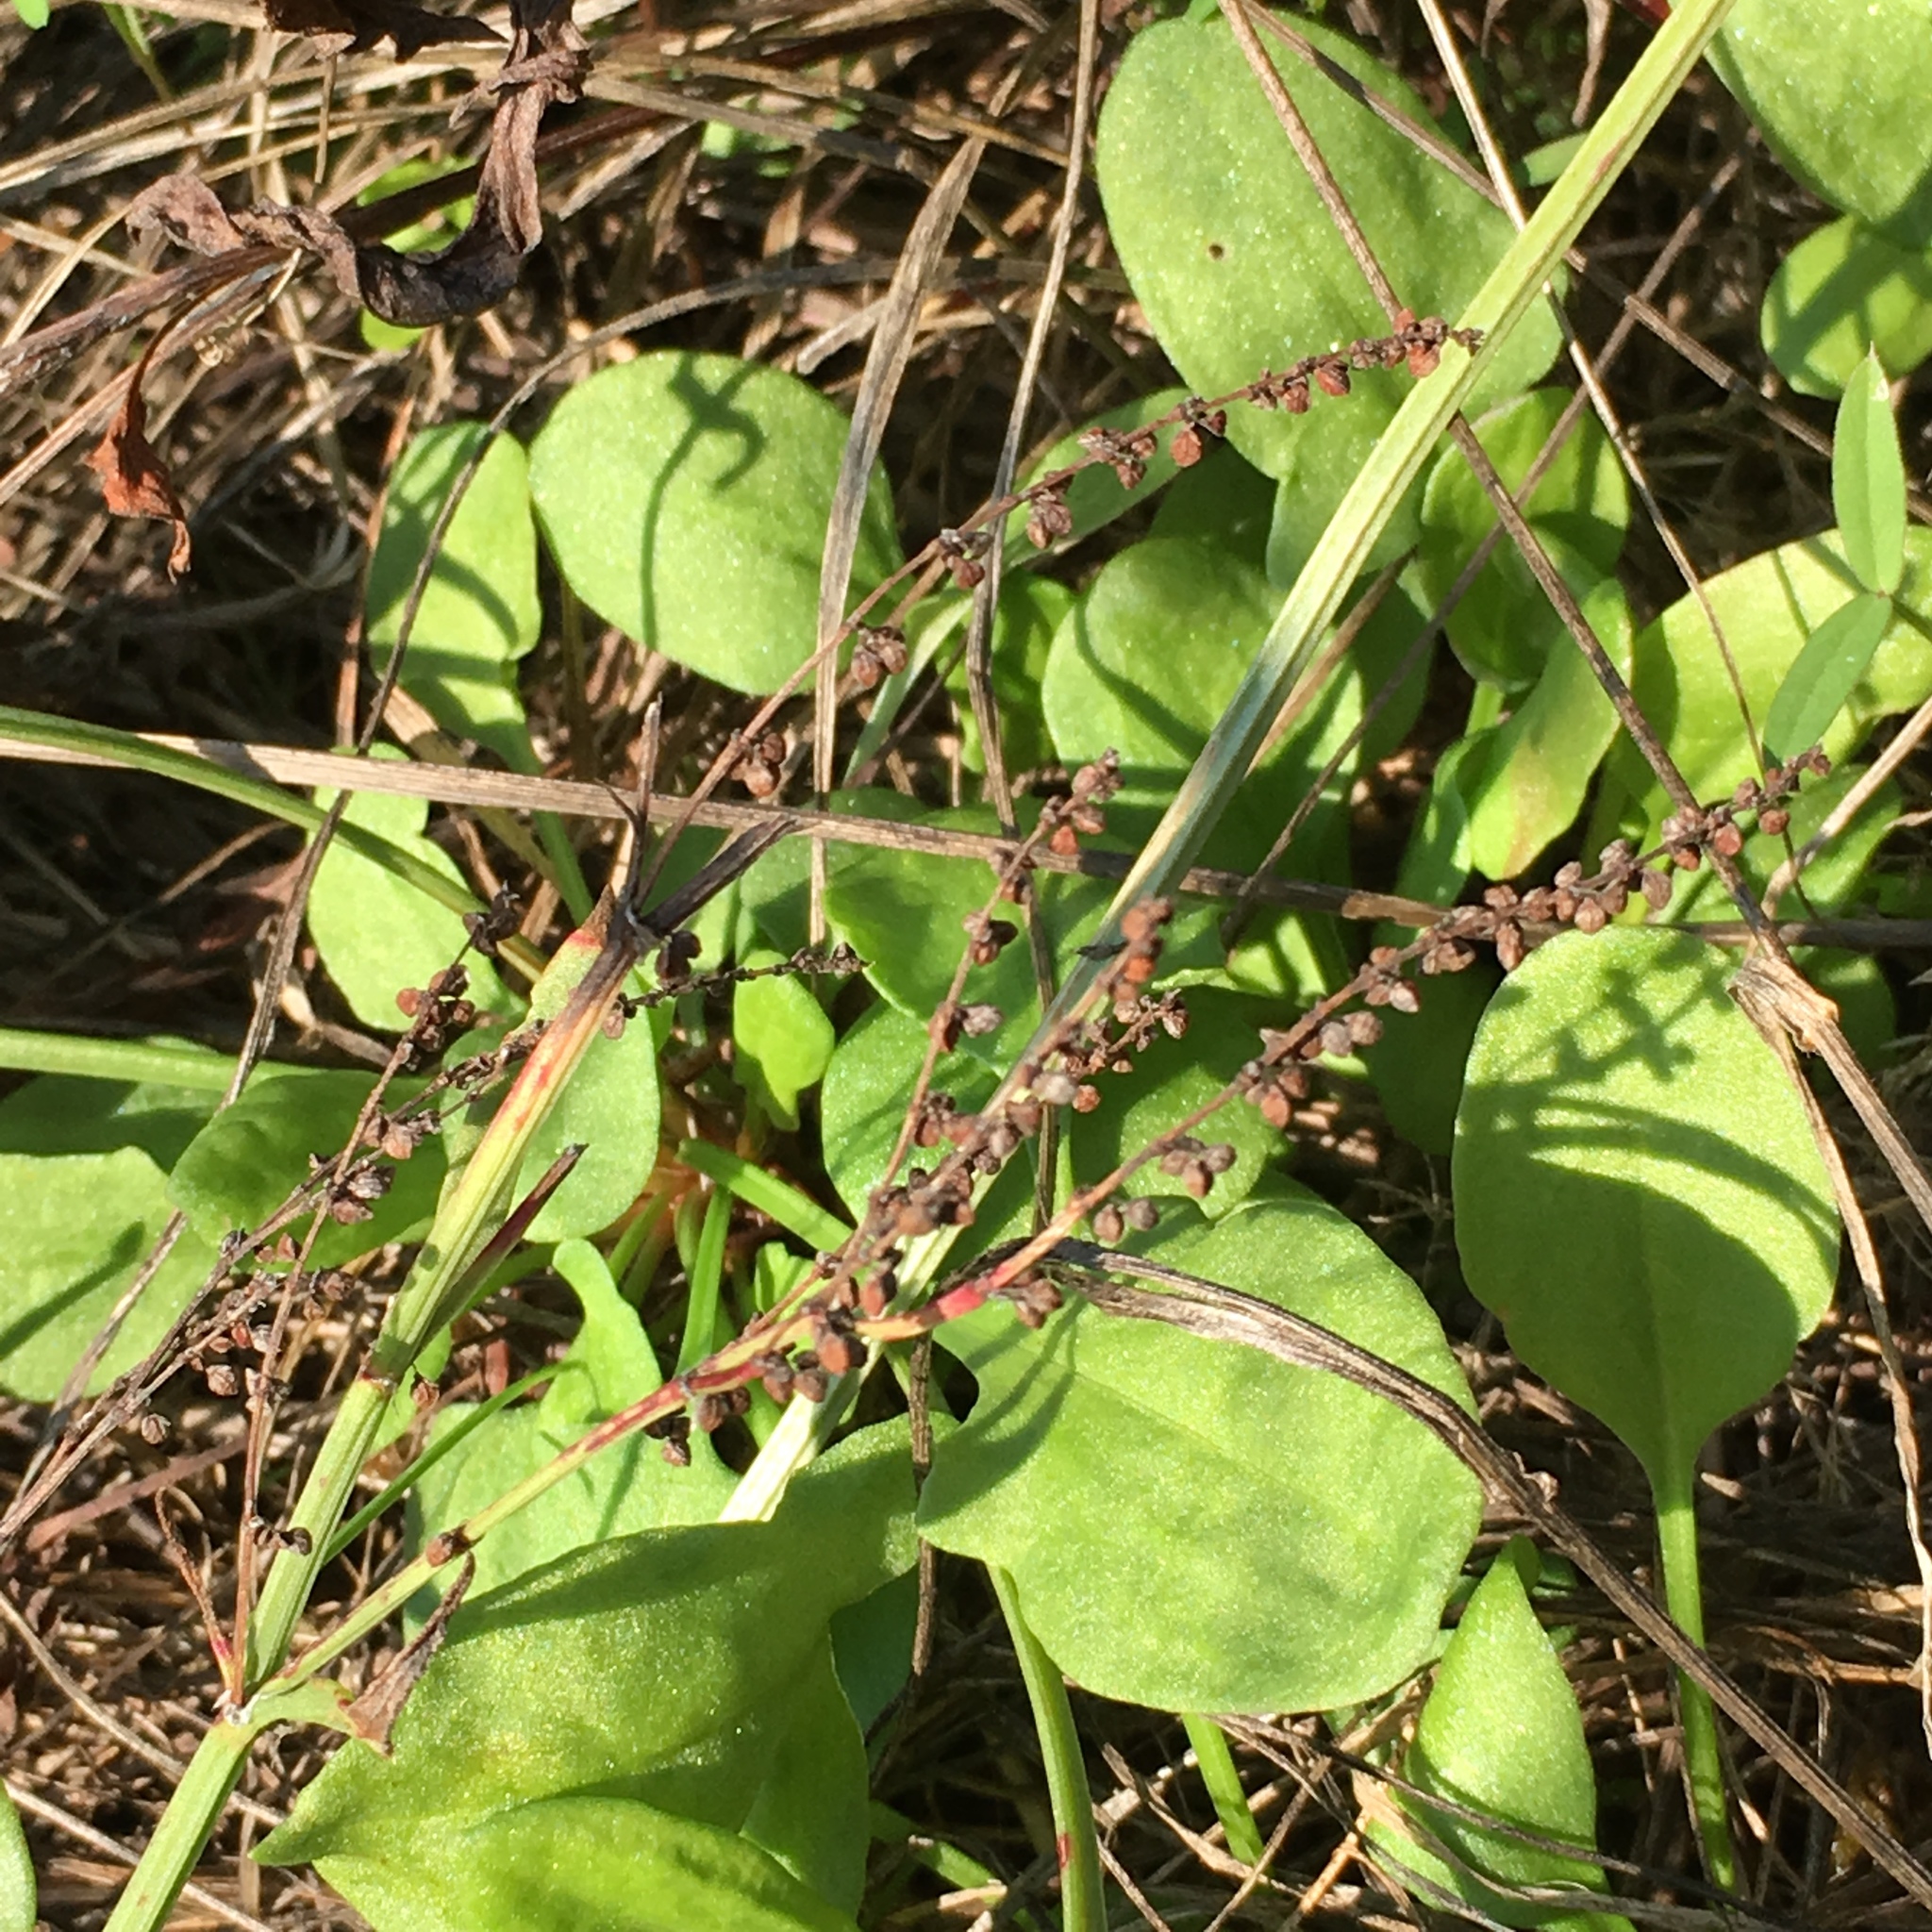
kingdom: Plantae
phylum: Tracheophyta
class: Magnoliopsida
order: Caryophyllales
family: Polygonaceae
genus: Rumex
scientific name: Rumex acetosella
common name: Common sheep sorrel
